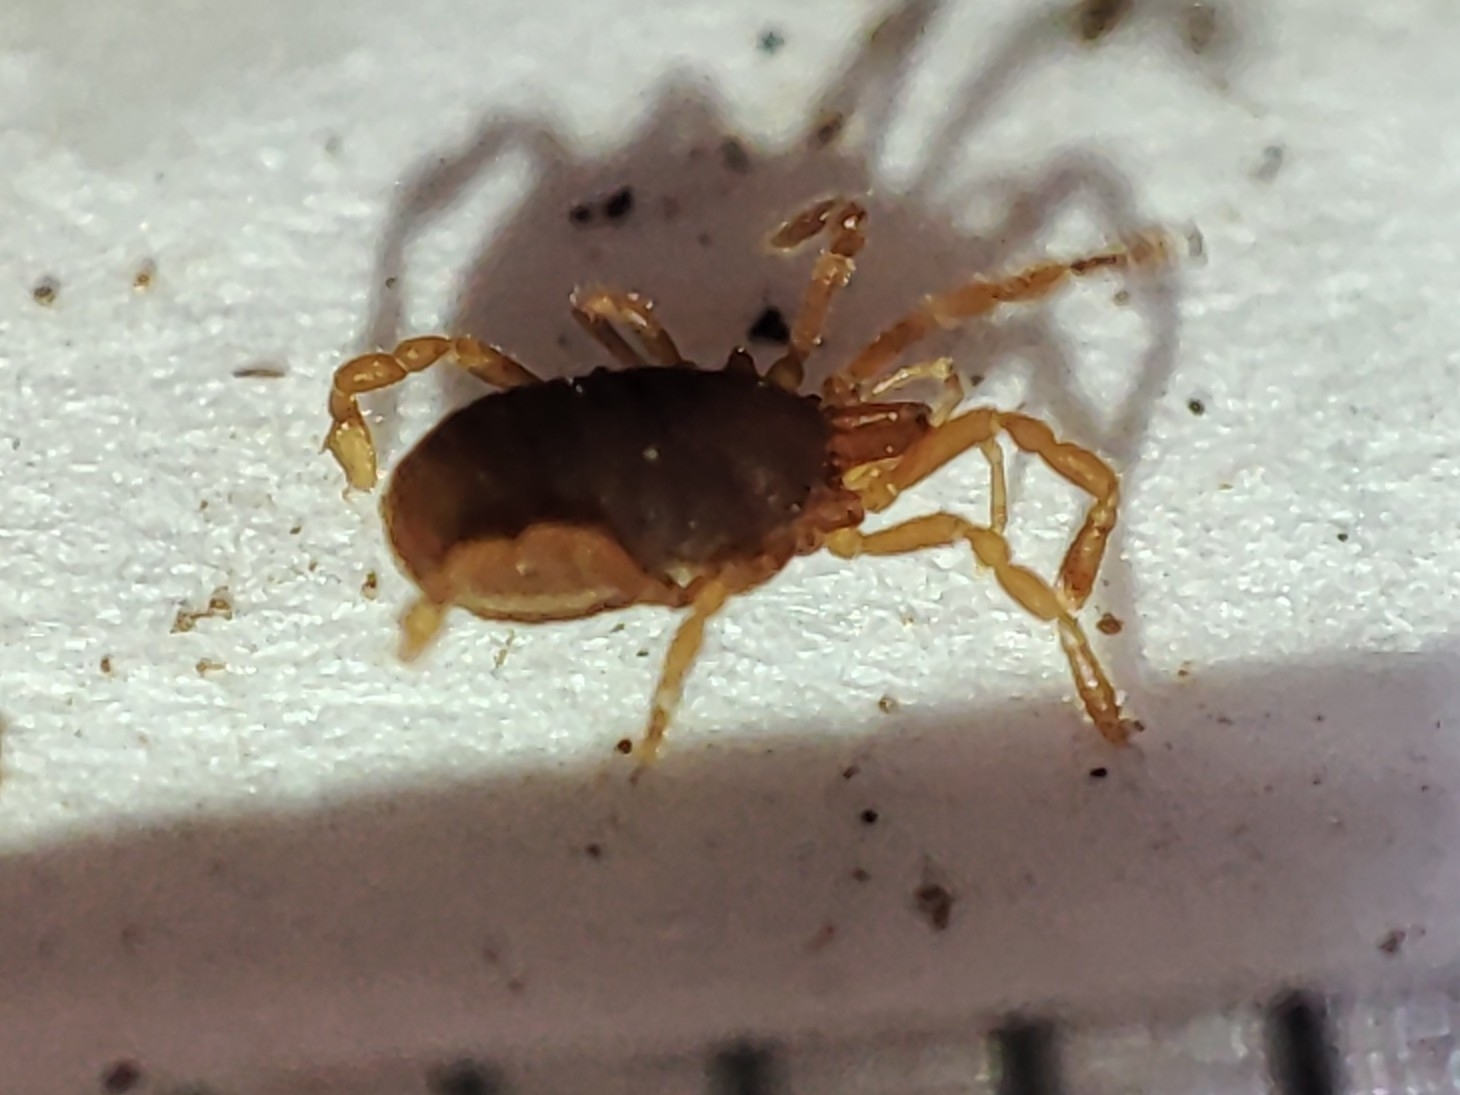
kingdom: Animalia
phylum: Arthropoda
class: Arachnida
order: Opiliones
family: Sironidae
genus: Siro
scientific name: Siro carpaticus
